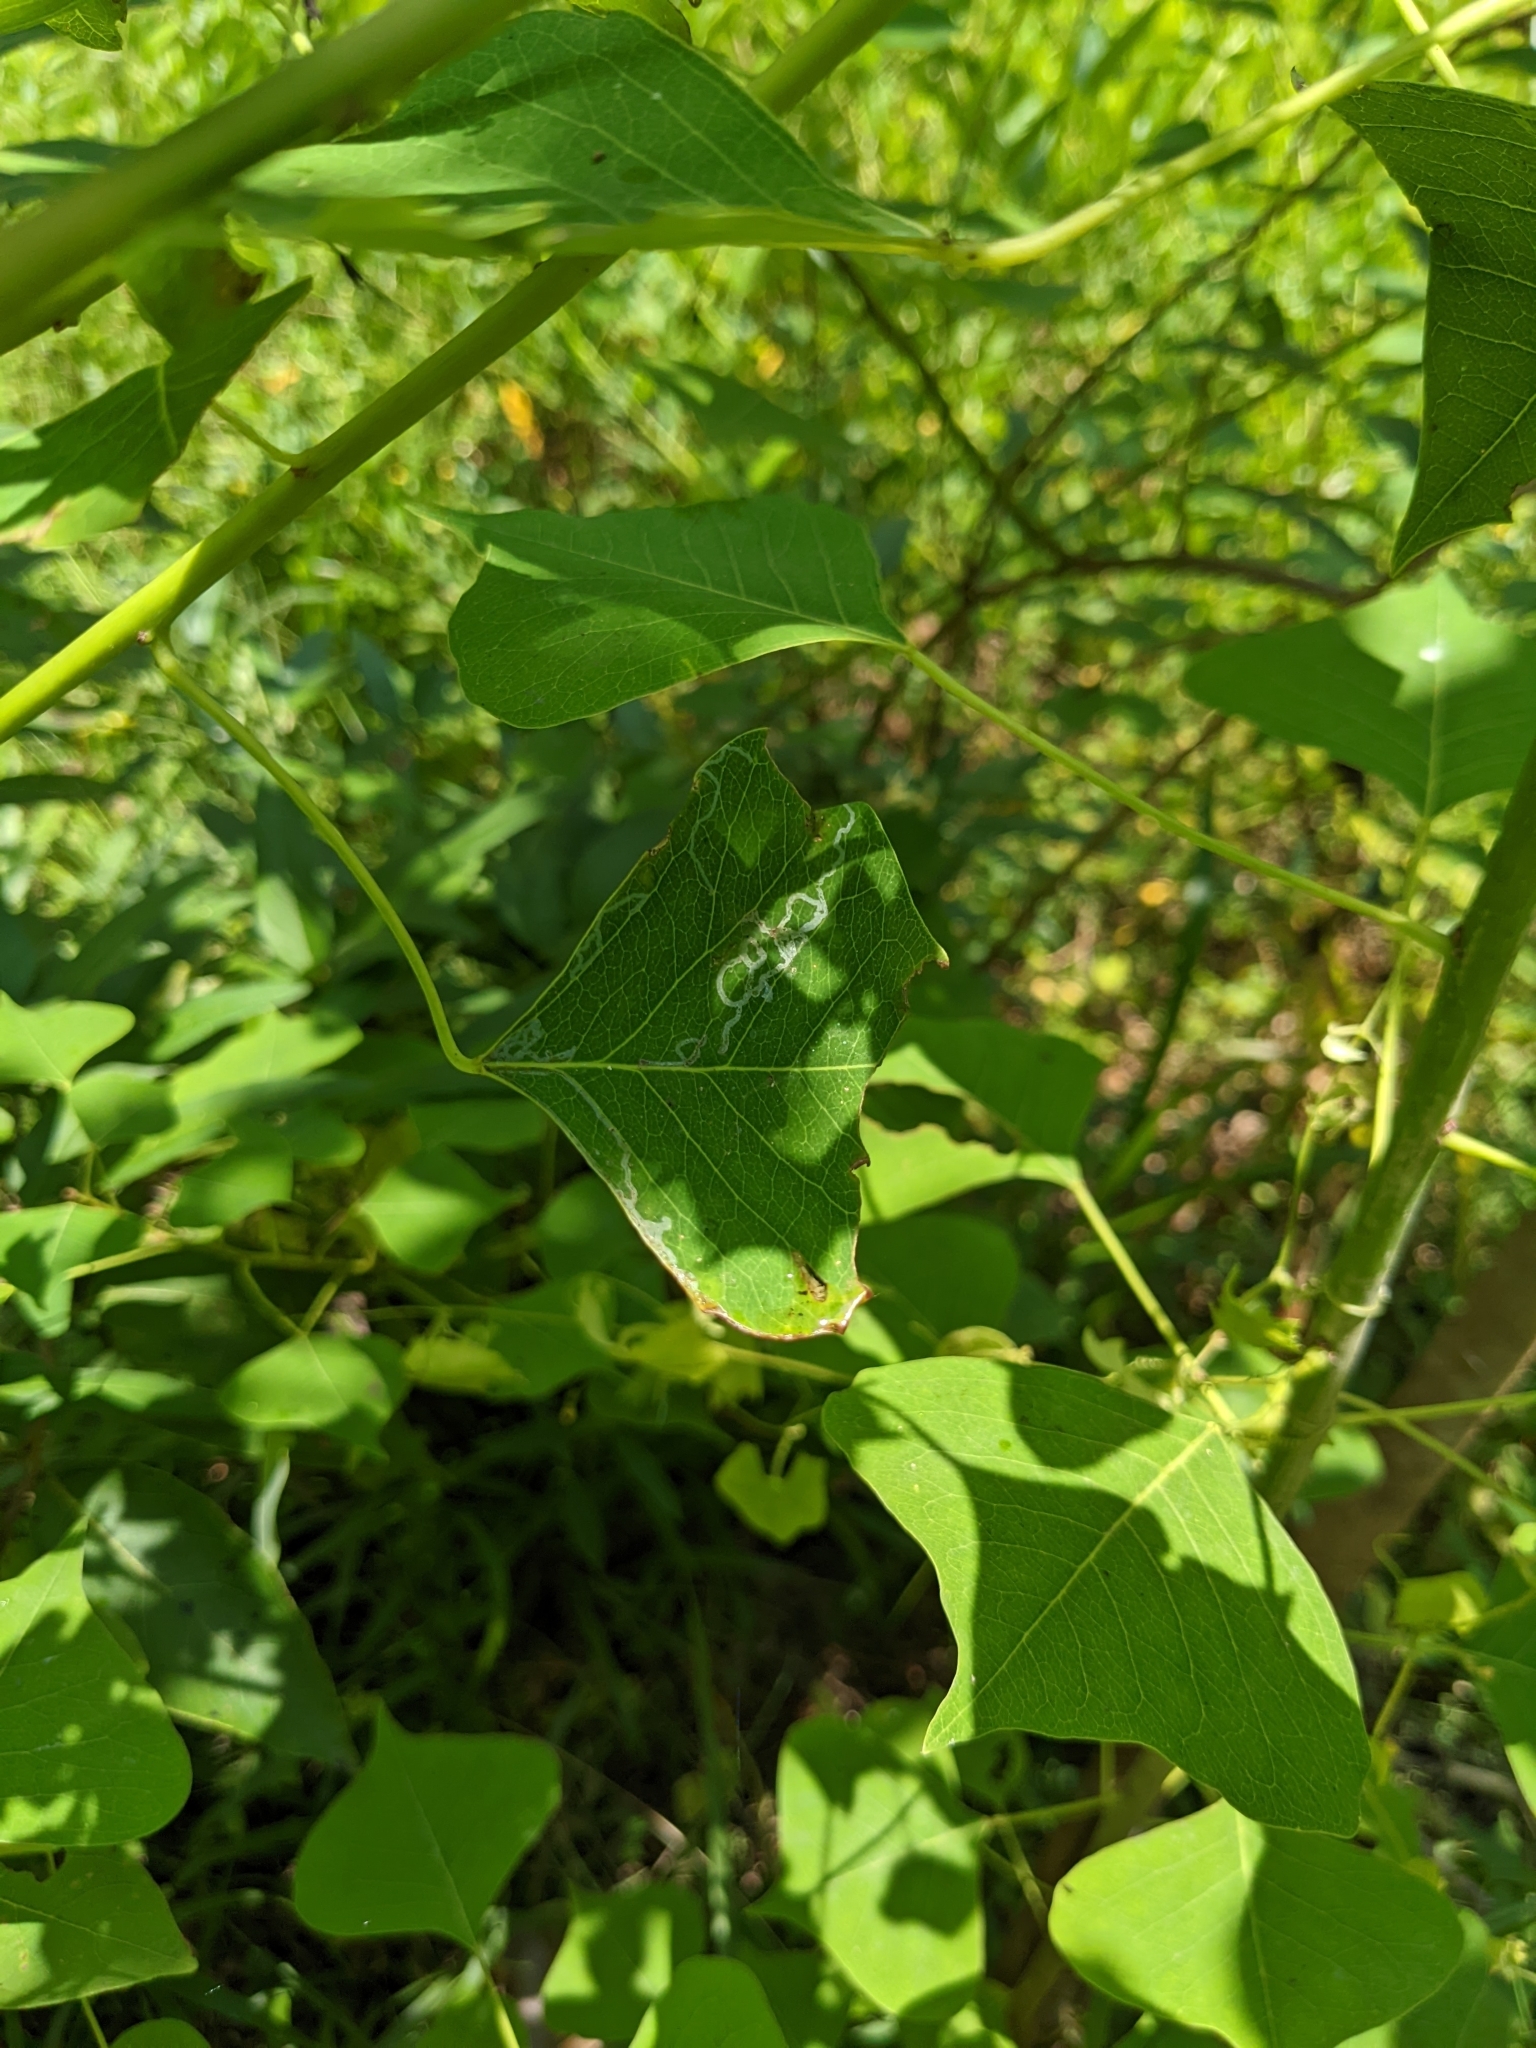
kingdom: Animalia
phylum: Arthropoda
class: Insecta
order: Lepidoptera
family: Gracillariidae
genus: Caloptilia
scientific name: Caloptilia triadicae
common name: Tallow leaf roller
